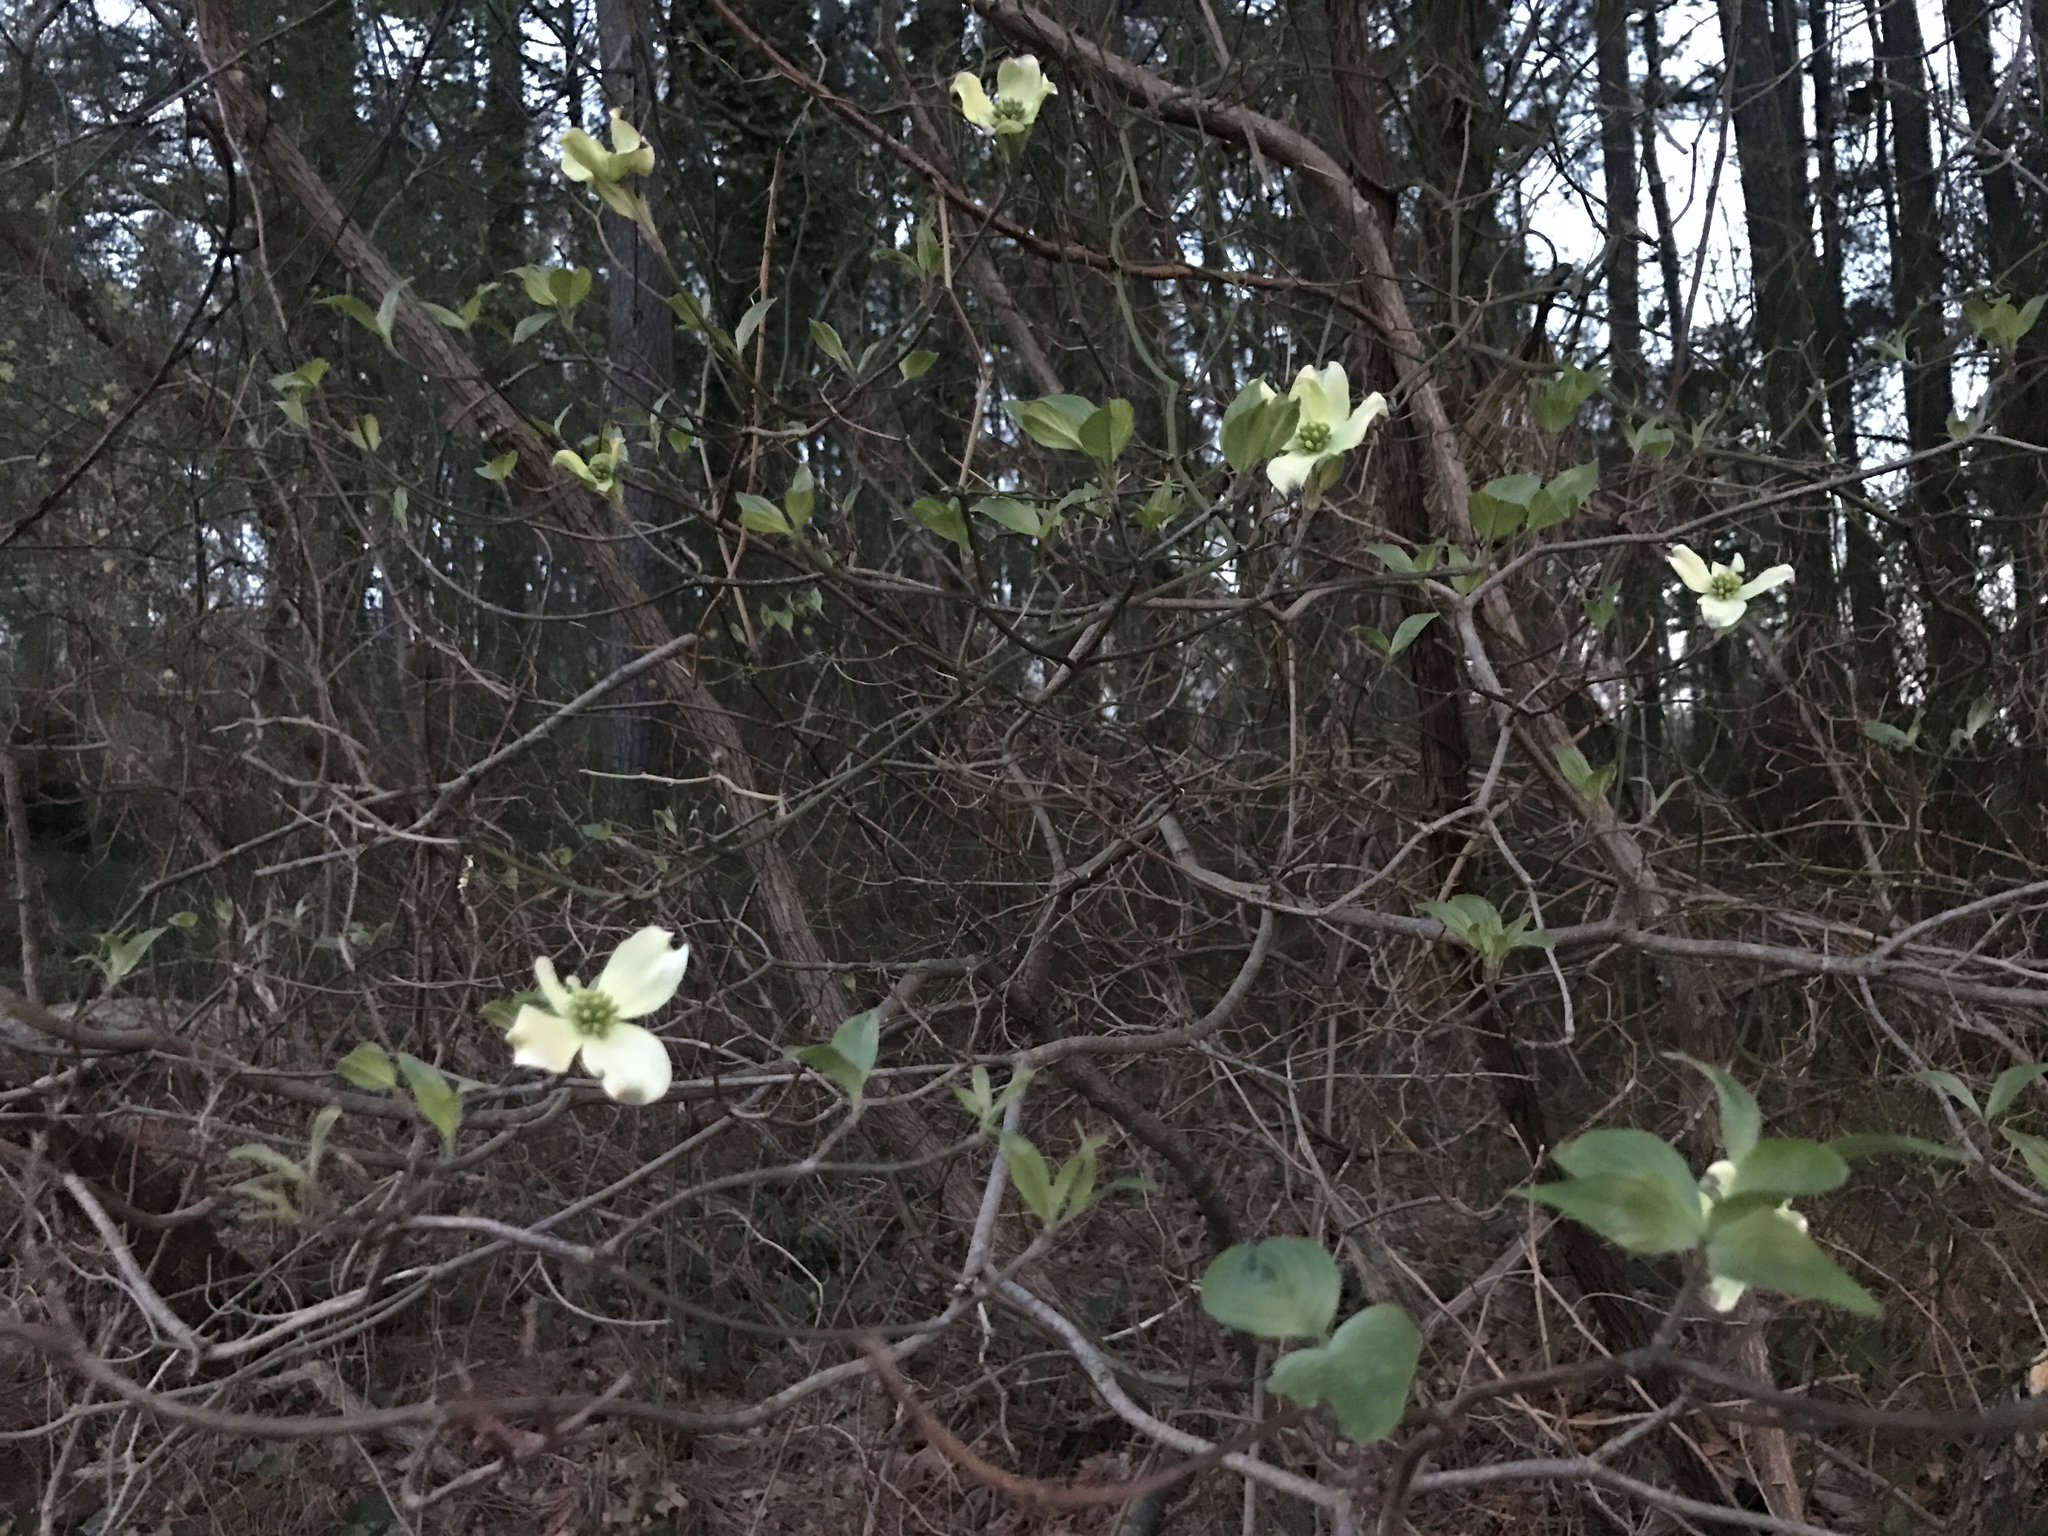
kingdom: Plantae
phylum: Tracheophyta
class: Magnoliopsida
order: Cornales
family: Cornaceae
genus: Cornus
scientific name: Cornus florida
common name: Flowering dogwood
